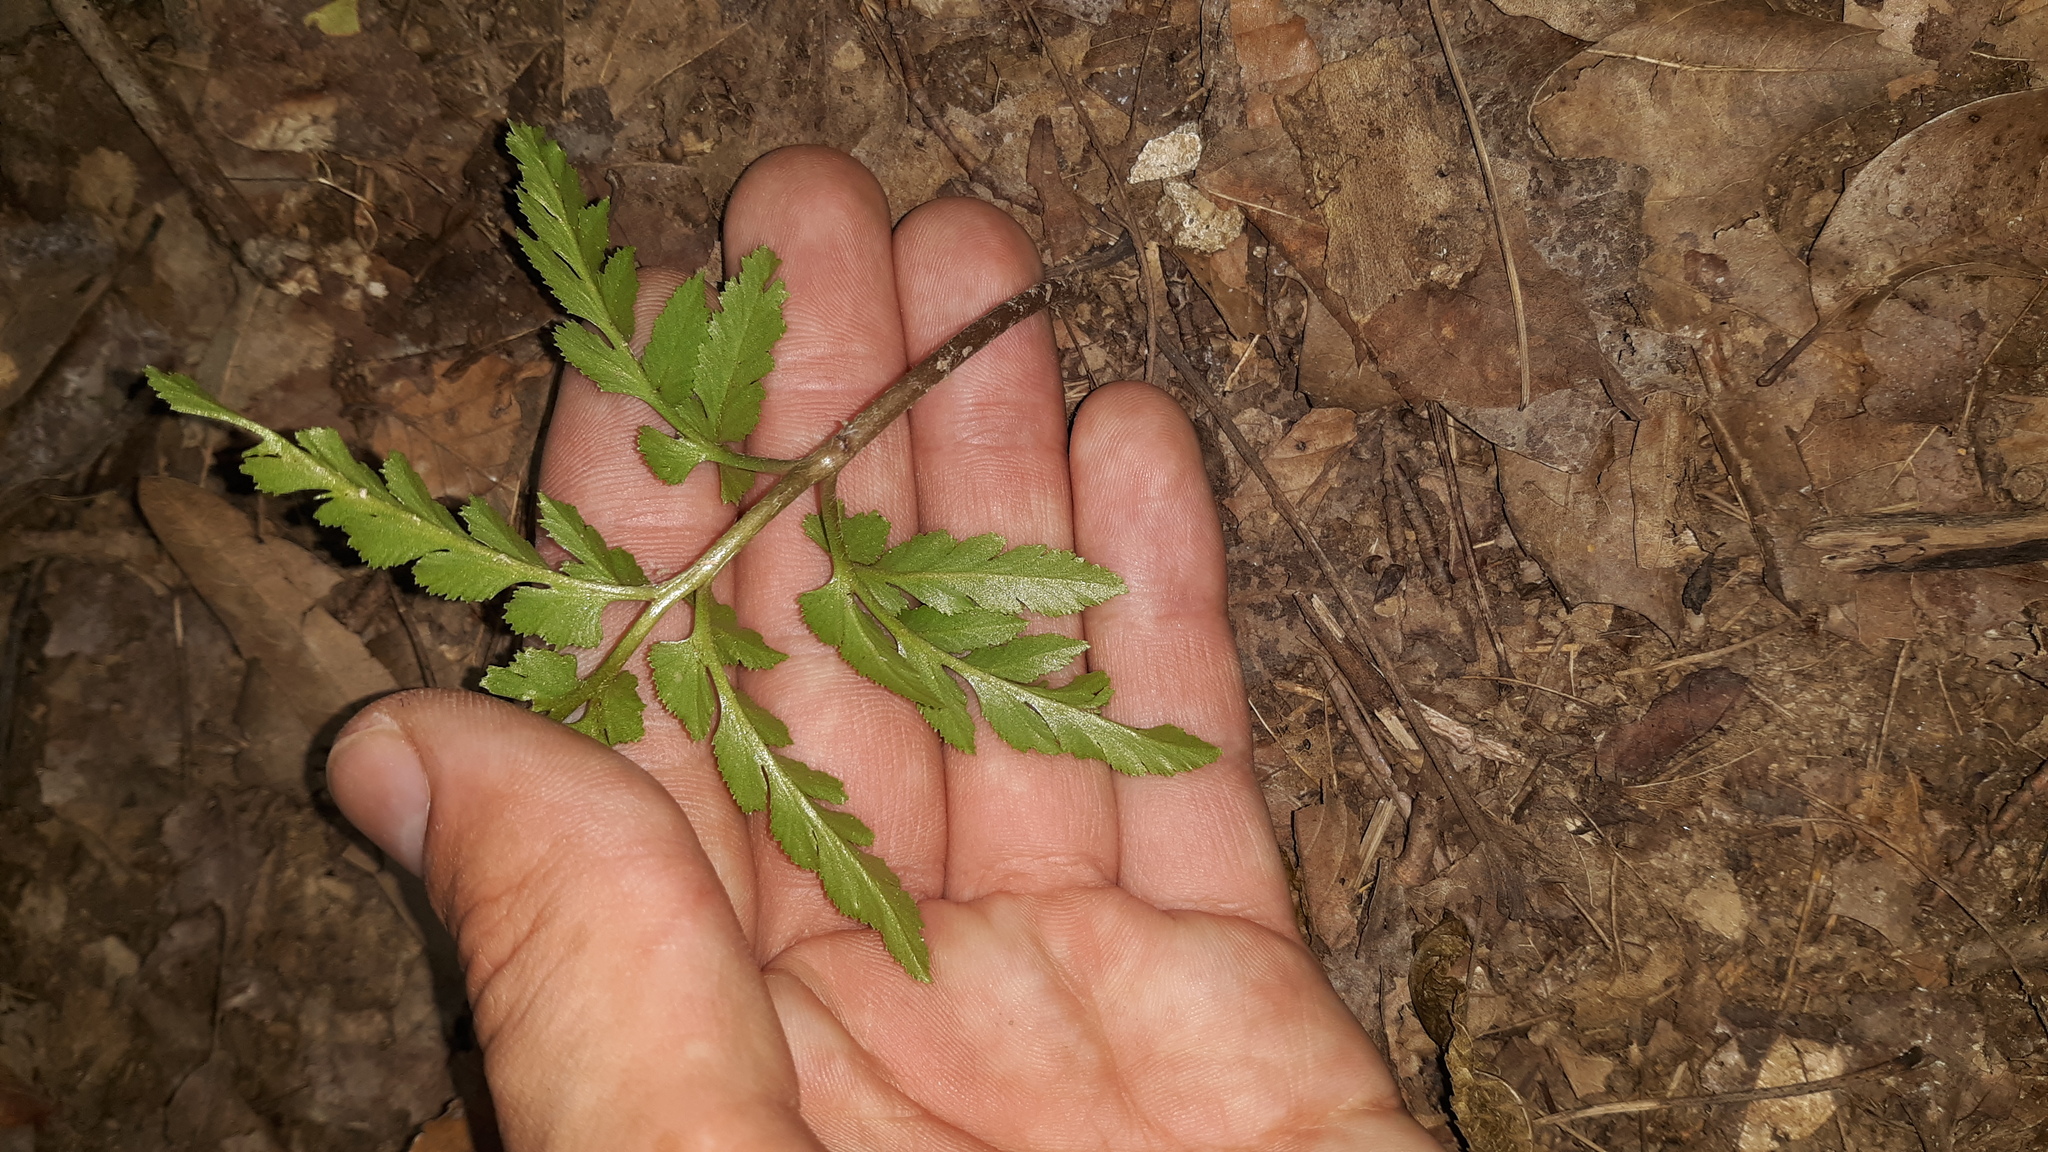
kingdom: Plantae
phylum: Tracheophyta
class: Polypodiopsida
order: Ophioglossales
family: Ophioglossaceae
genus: Sceptridium
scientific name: Sceptridium dissectum
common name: Cut-leaved grapefern
